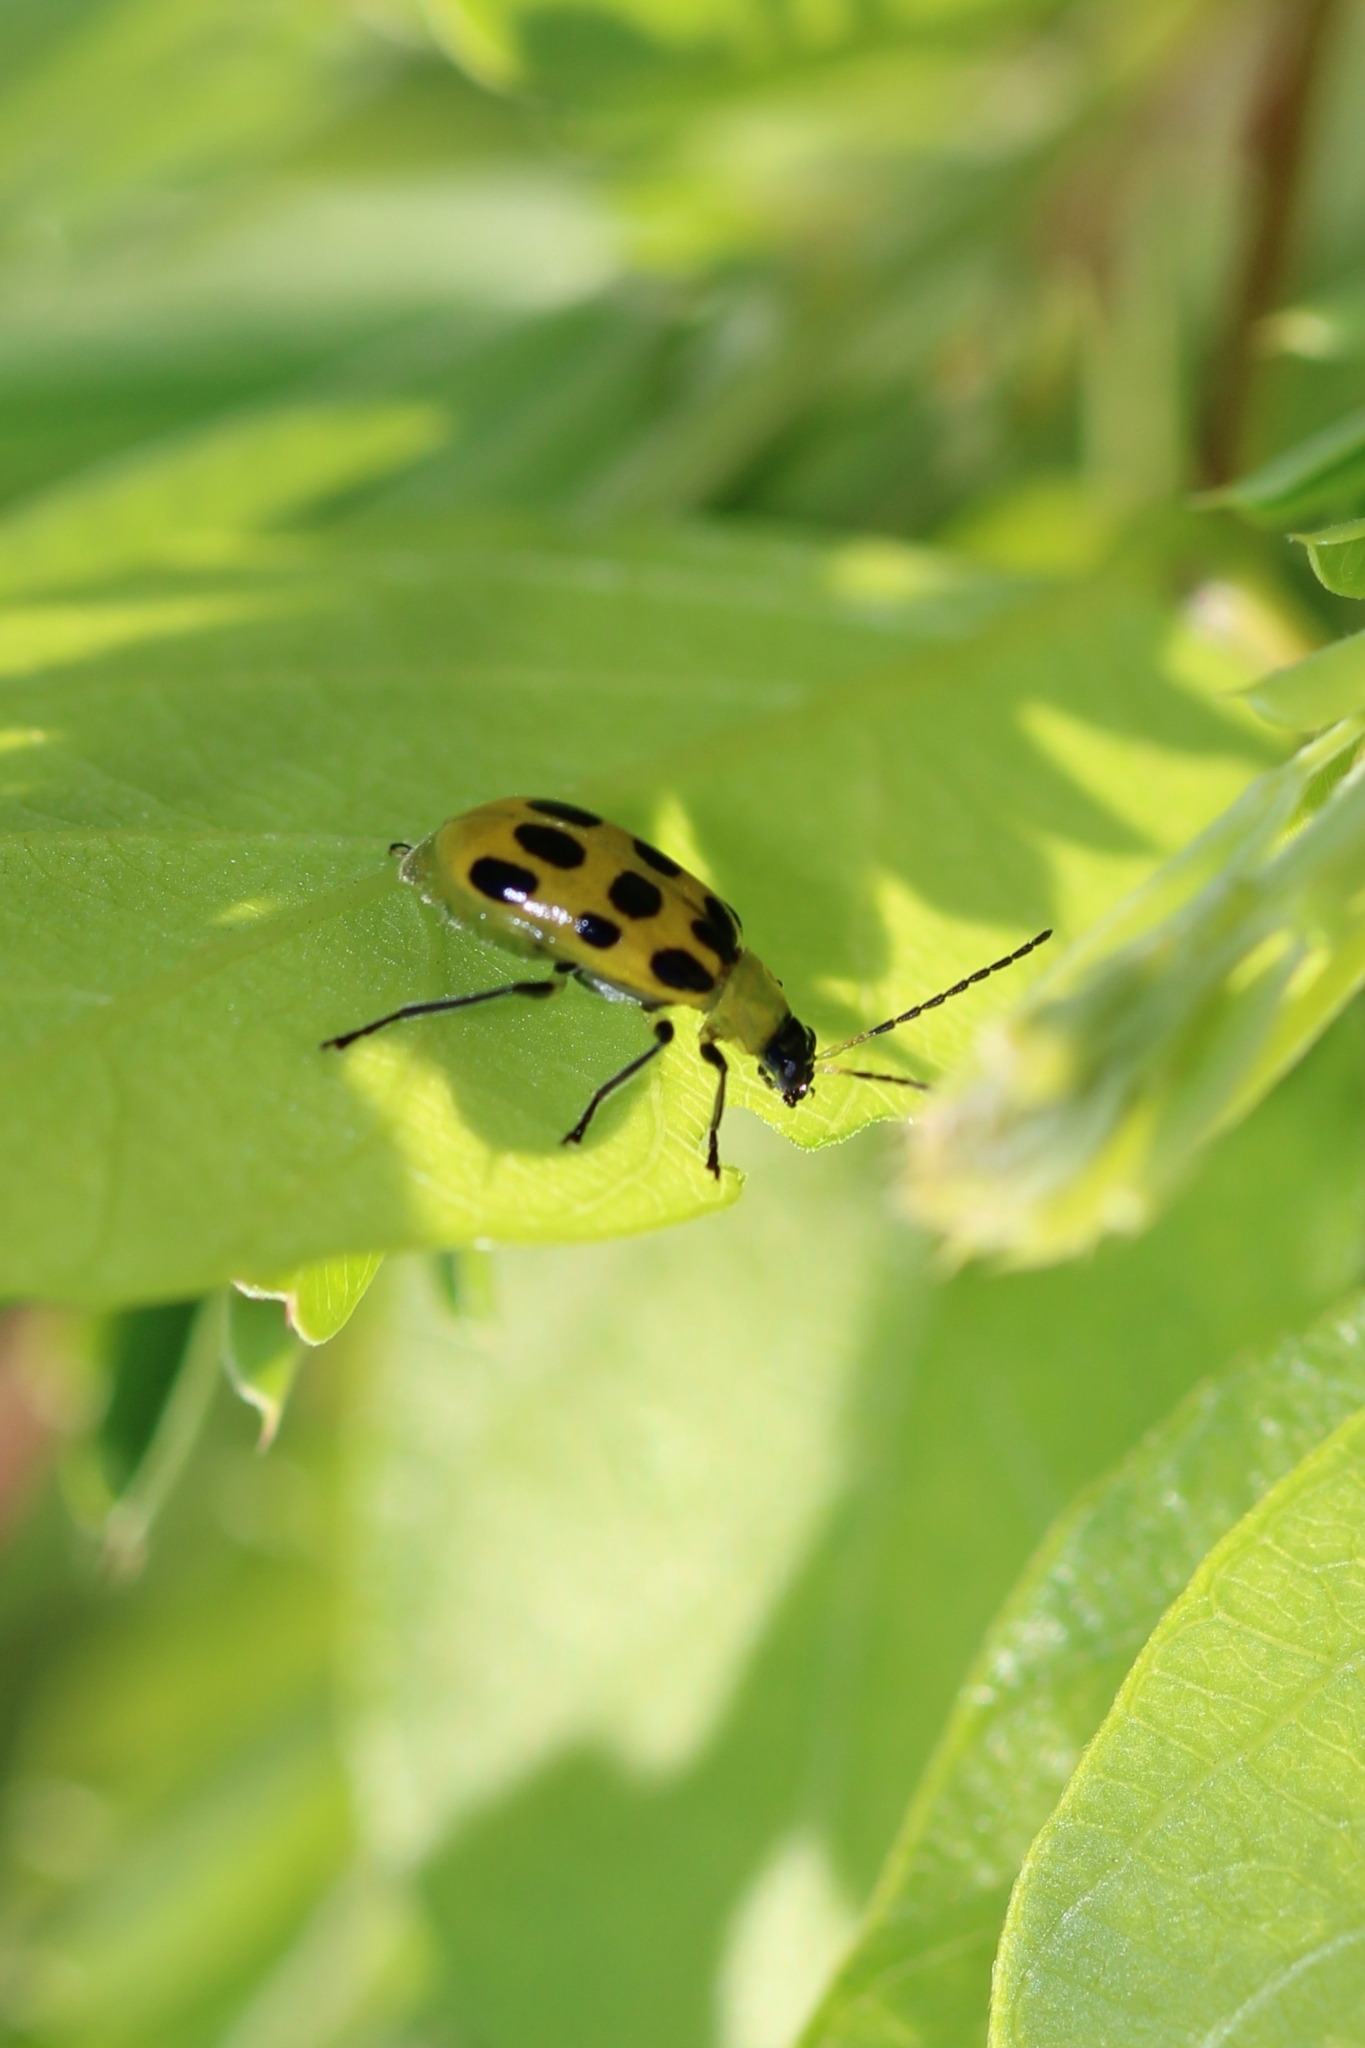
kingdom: Animalia
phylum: Arthropoda
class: Insecta
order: Coleoptera
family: Chrysomelidae
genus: Diabrotica
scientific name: Diabrotica undecimpunctata
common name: Spotted cucumber beetle
